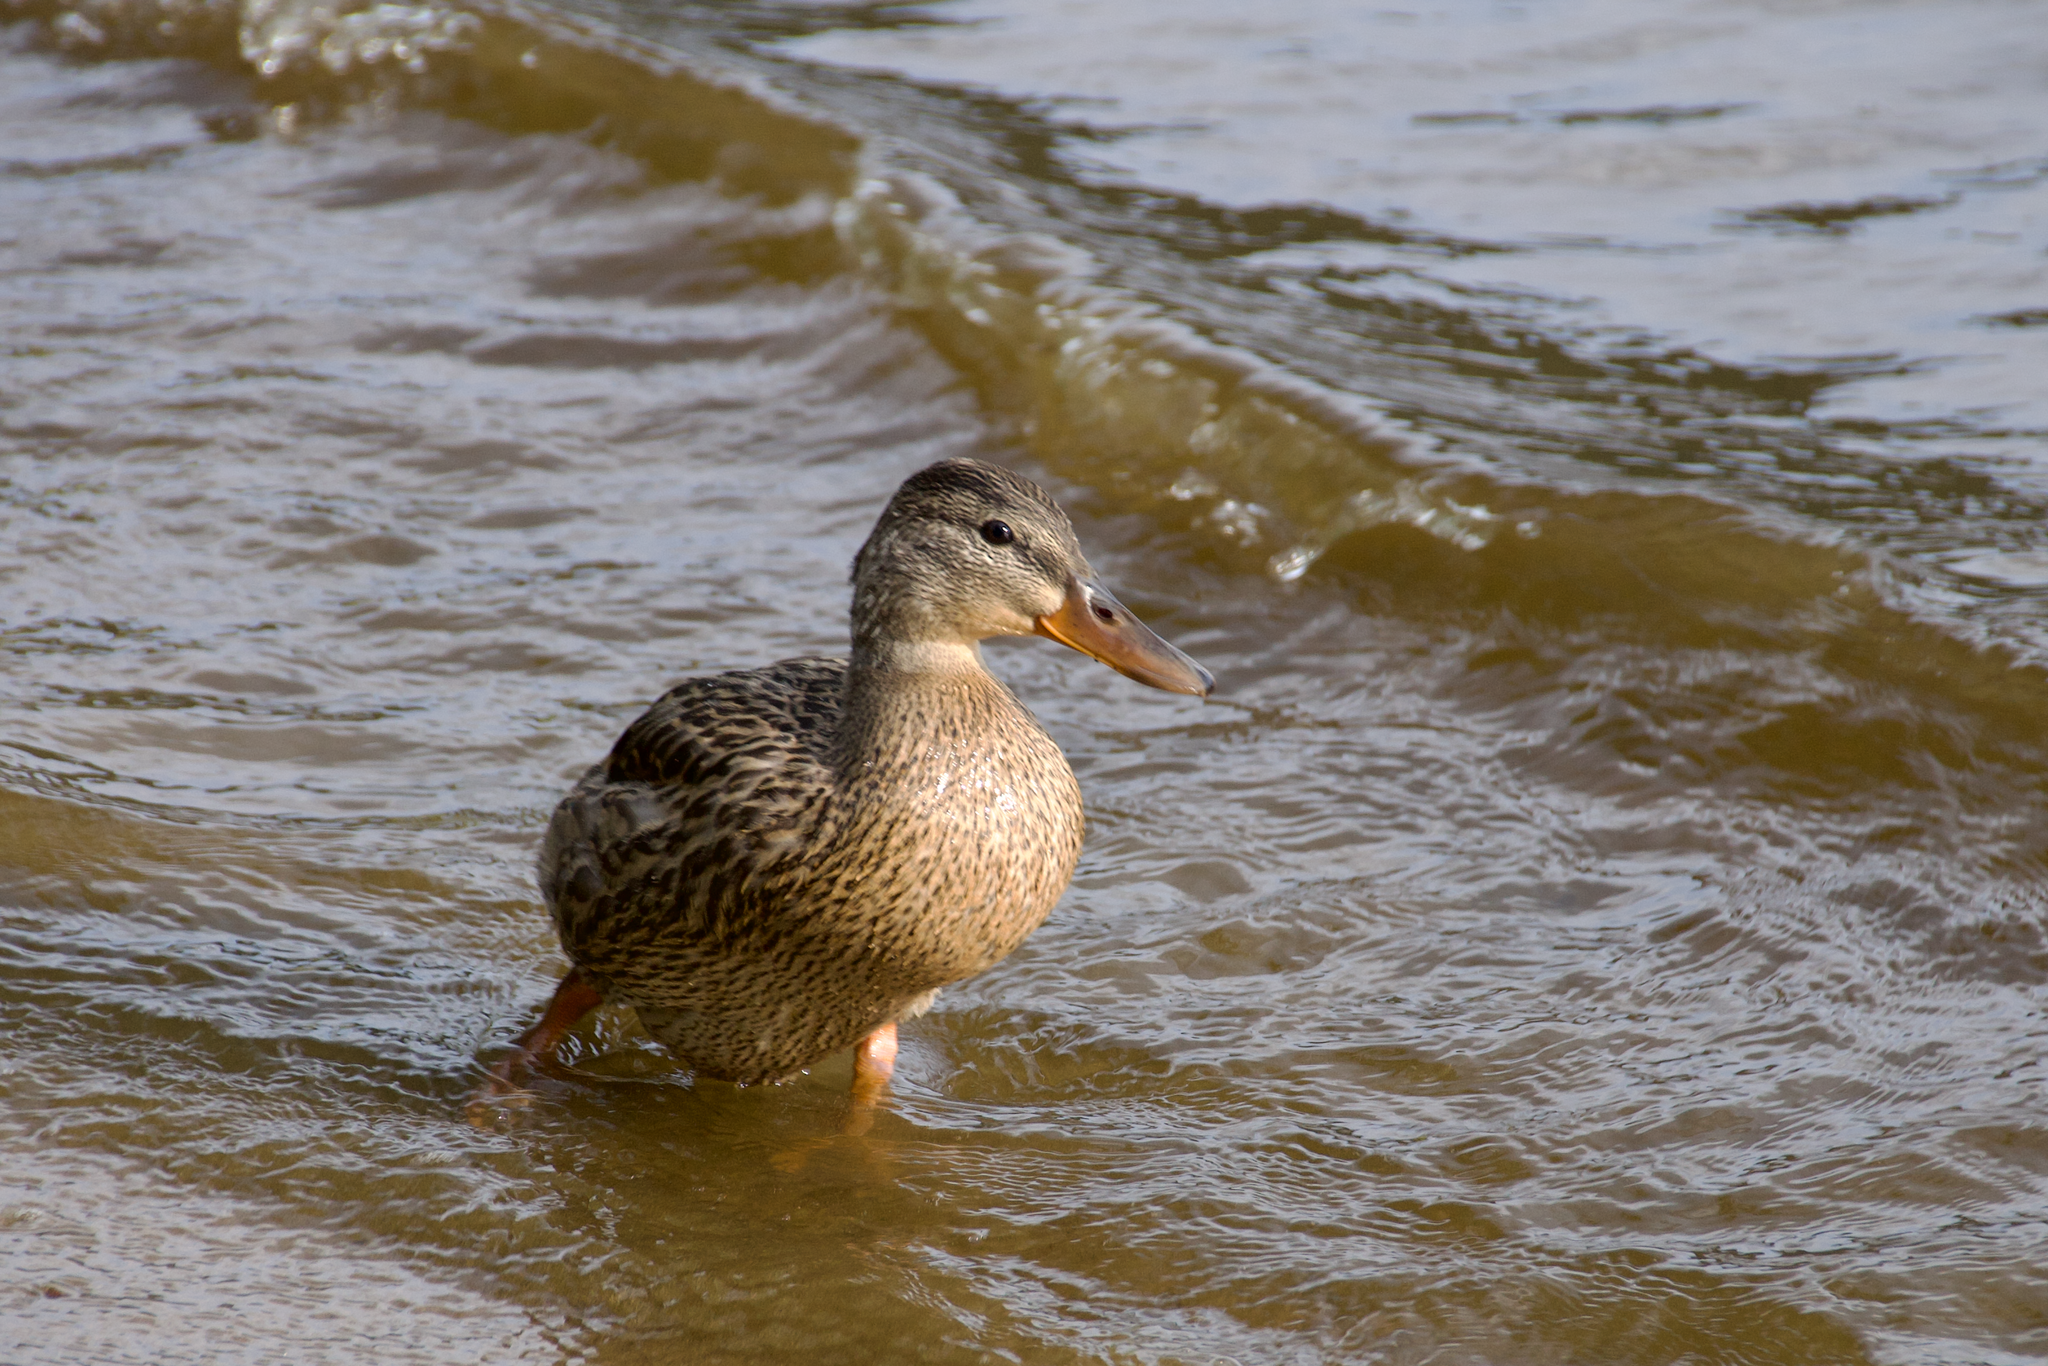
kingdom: Animalia
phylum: Chordata
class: Aves
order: Anseriformes
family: Anatidae
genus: Anas
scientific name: Anas platyrhynchos
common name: Mallard
